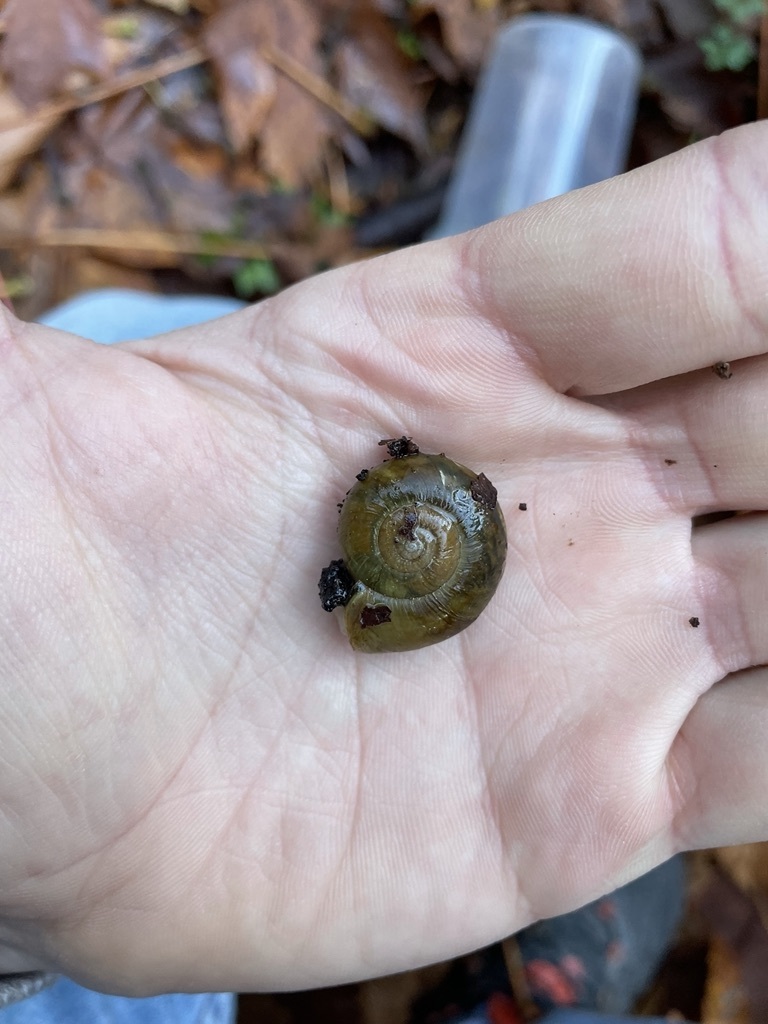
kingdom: Animalia
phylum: Mollusca
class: Gastropoda
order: Stylommatophora
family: Haplotrematidae
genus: Haplotrema
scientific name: Haplotrema vancouverense
